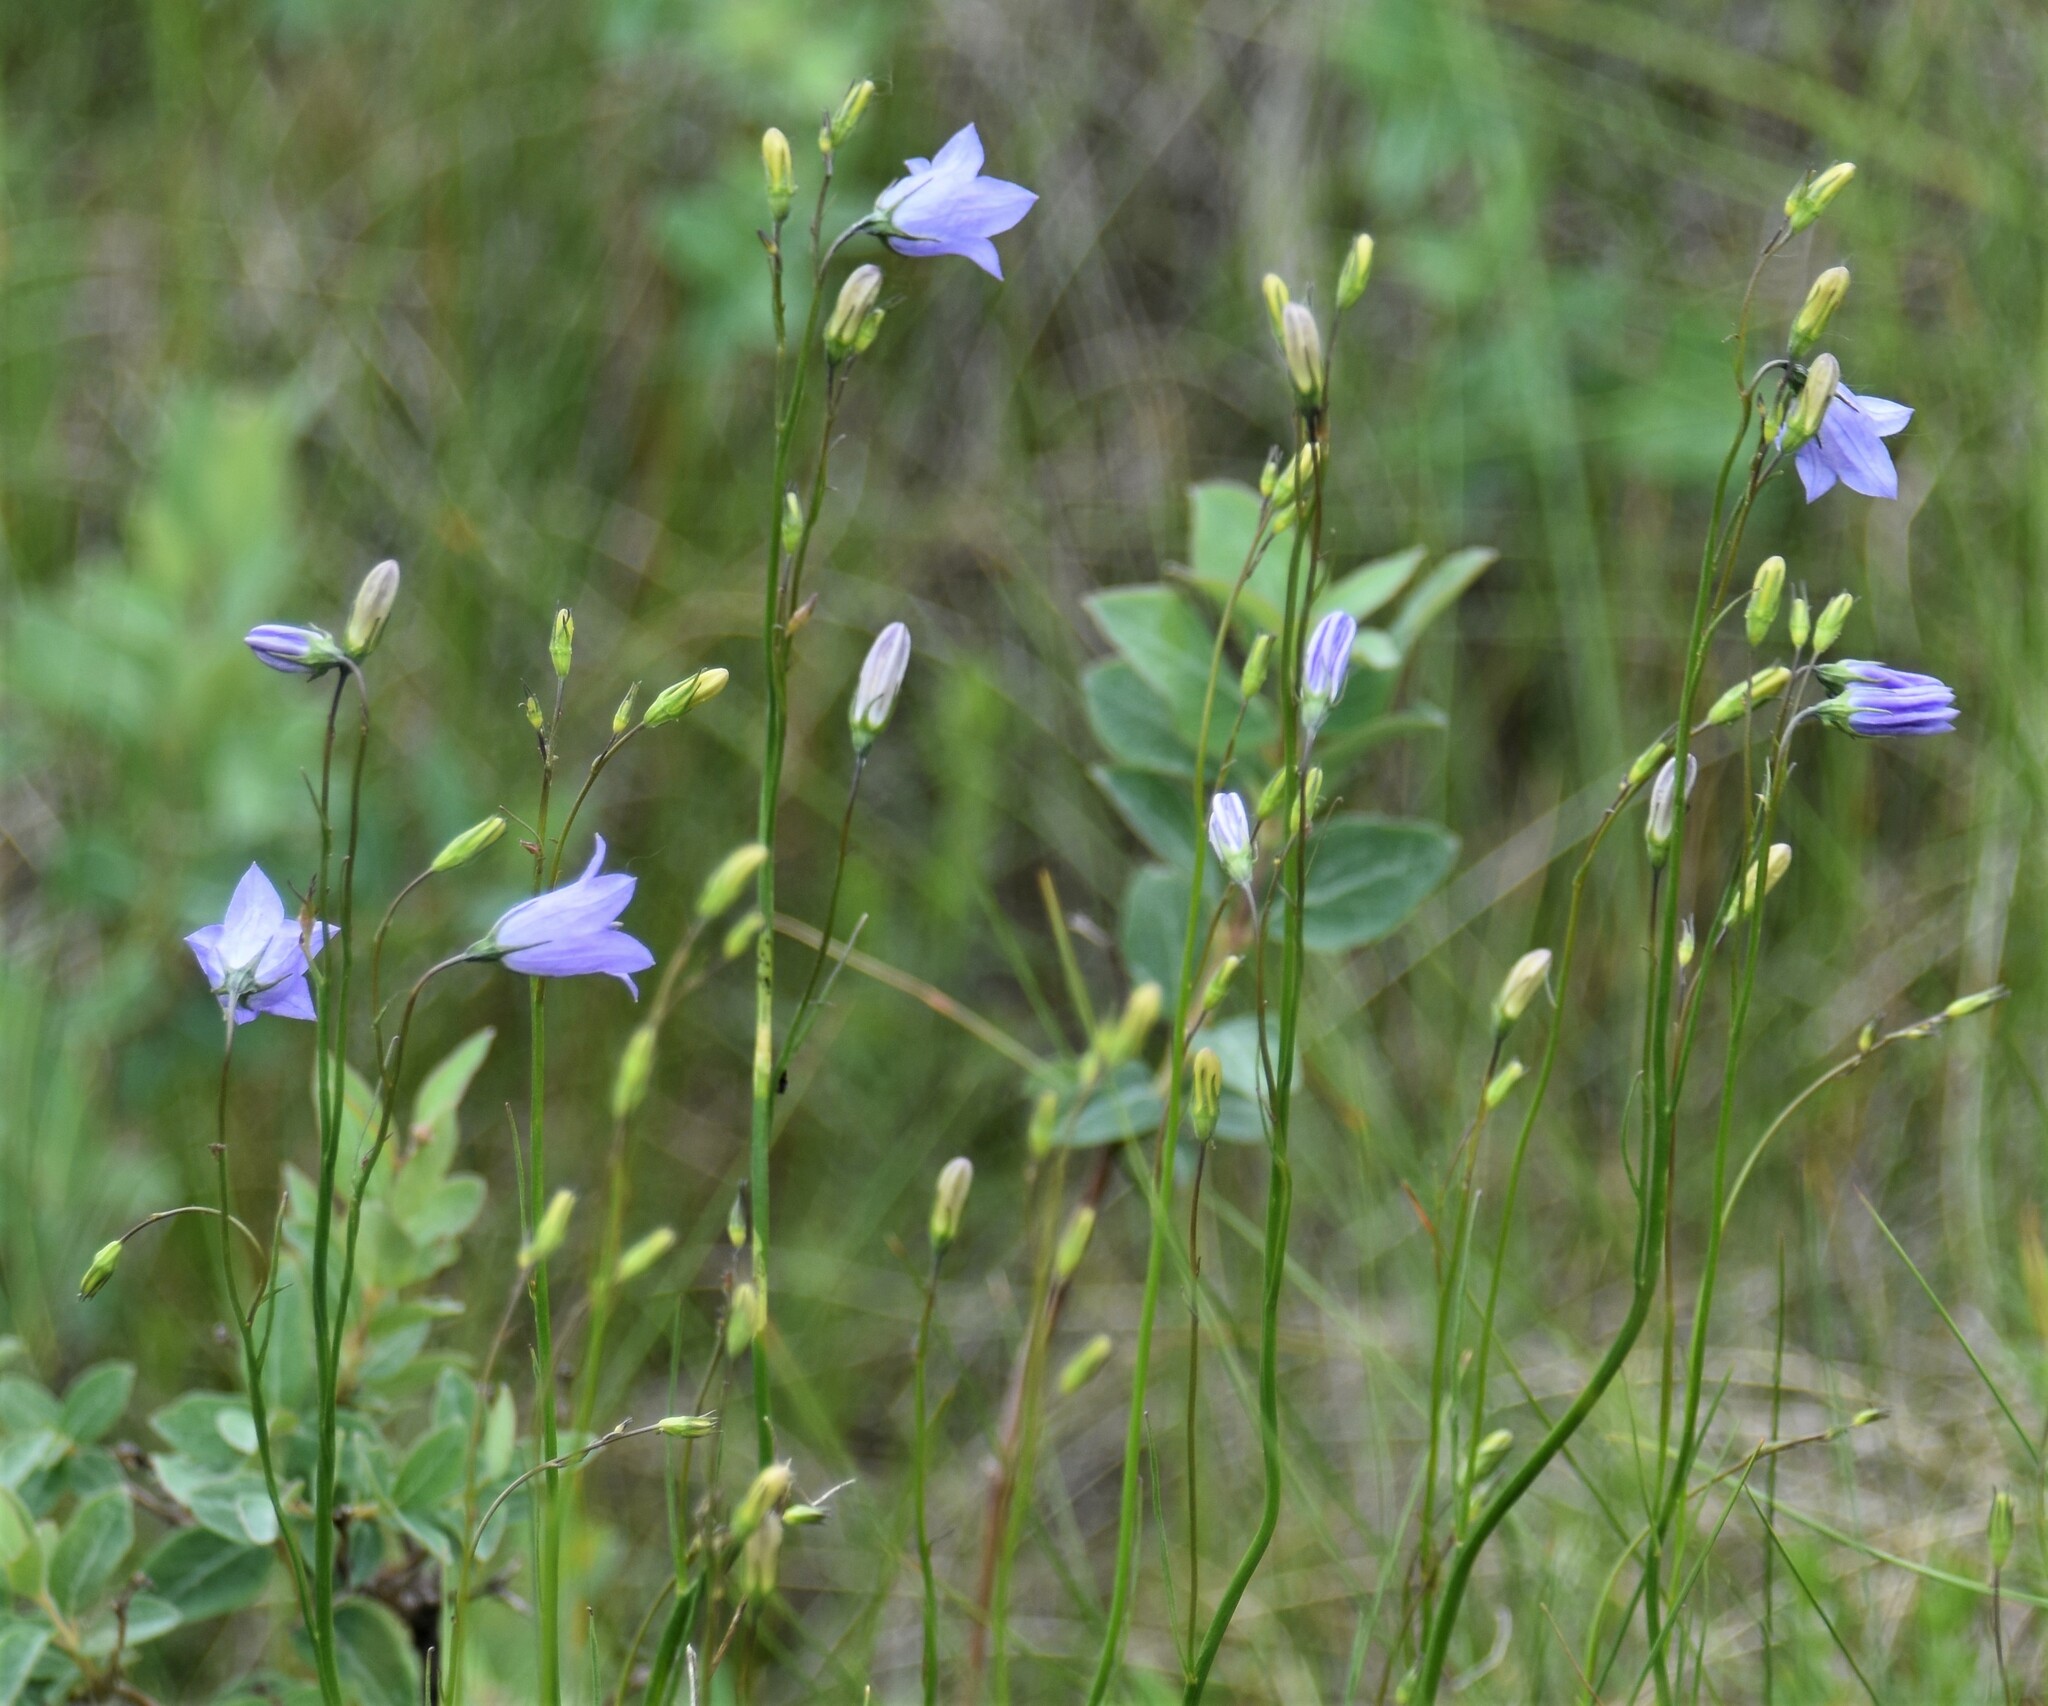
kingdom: Plantae
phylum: Tracheophyta
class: Magnoliopsida
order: Asterales
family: Campanulaceae
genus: Campanula
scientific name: Campanula alaskana
